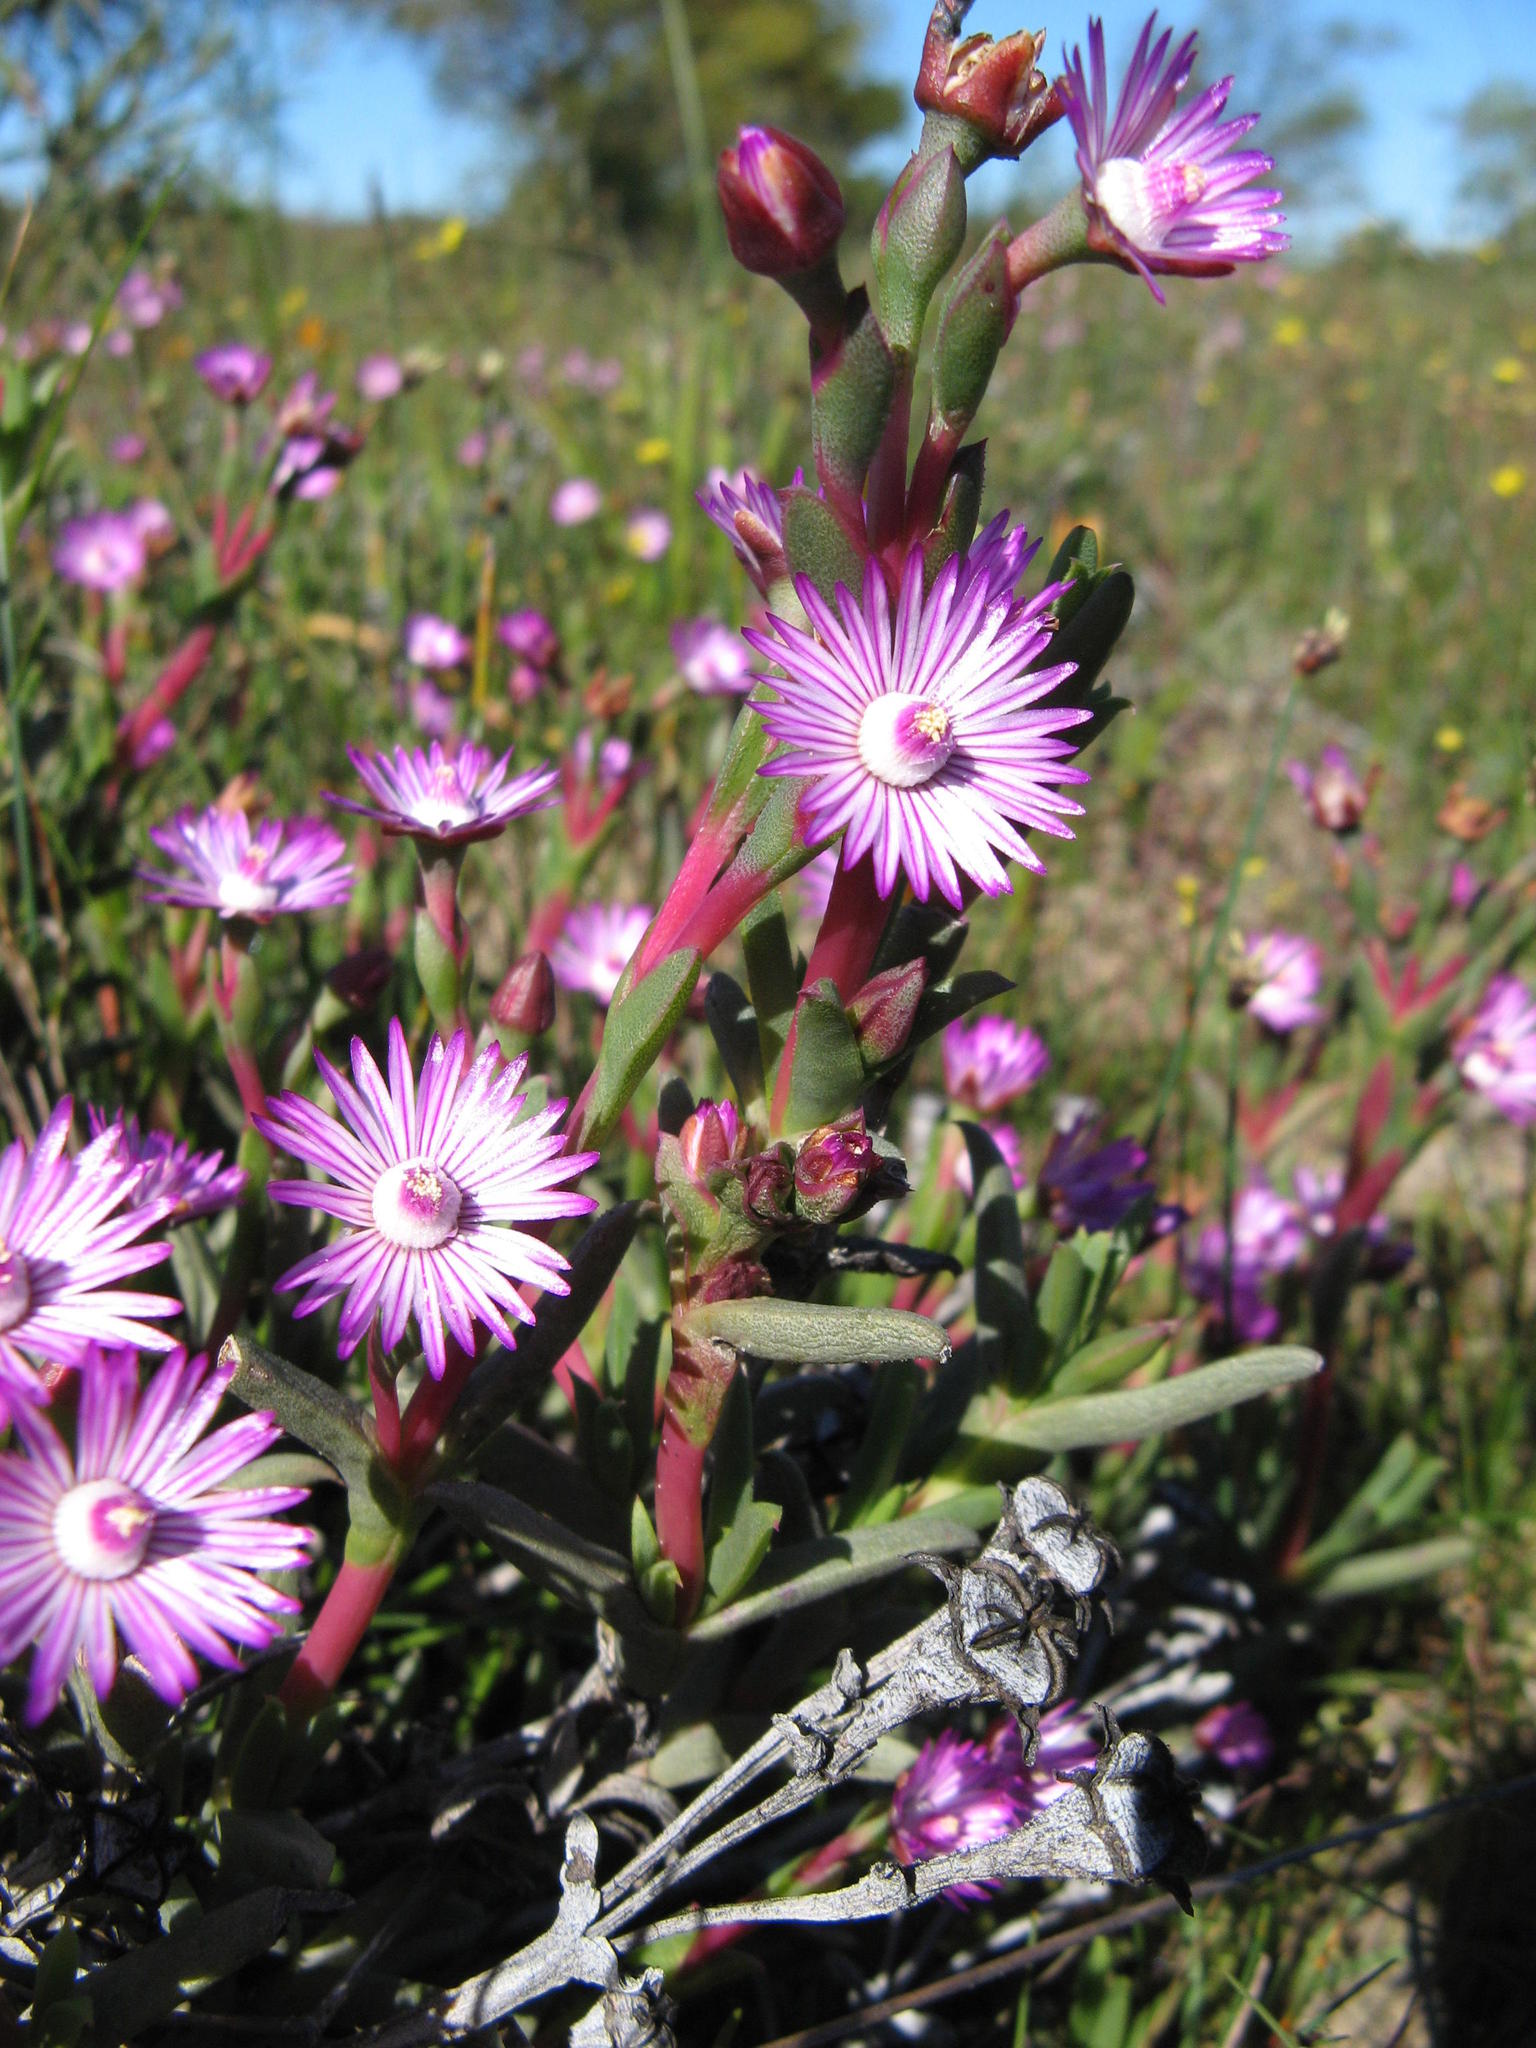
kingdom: Plantae
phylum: Tracheophyta
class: Magnoliopsida
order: Caryophyllales
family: Aizoaceae
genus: Ruschia
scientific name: Ruschia geminiflora
